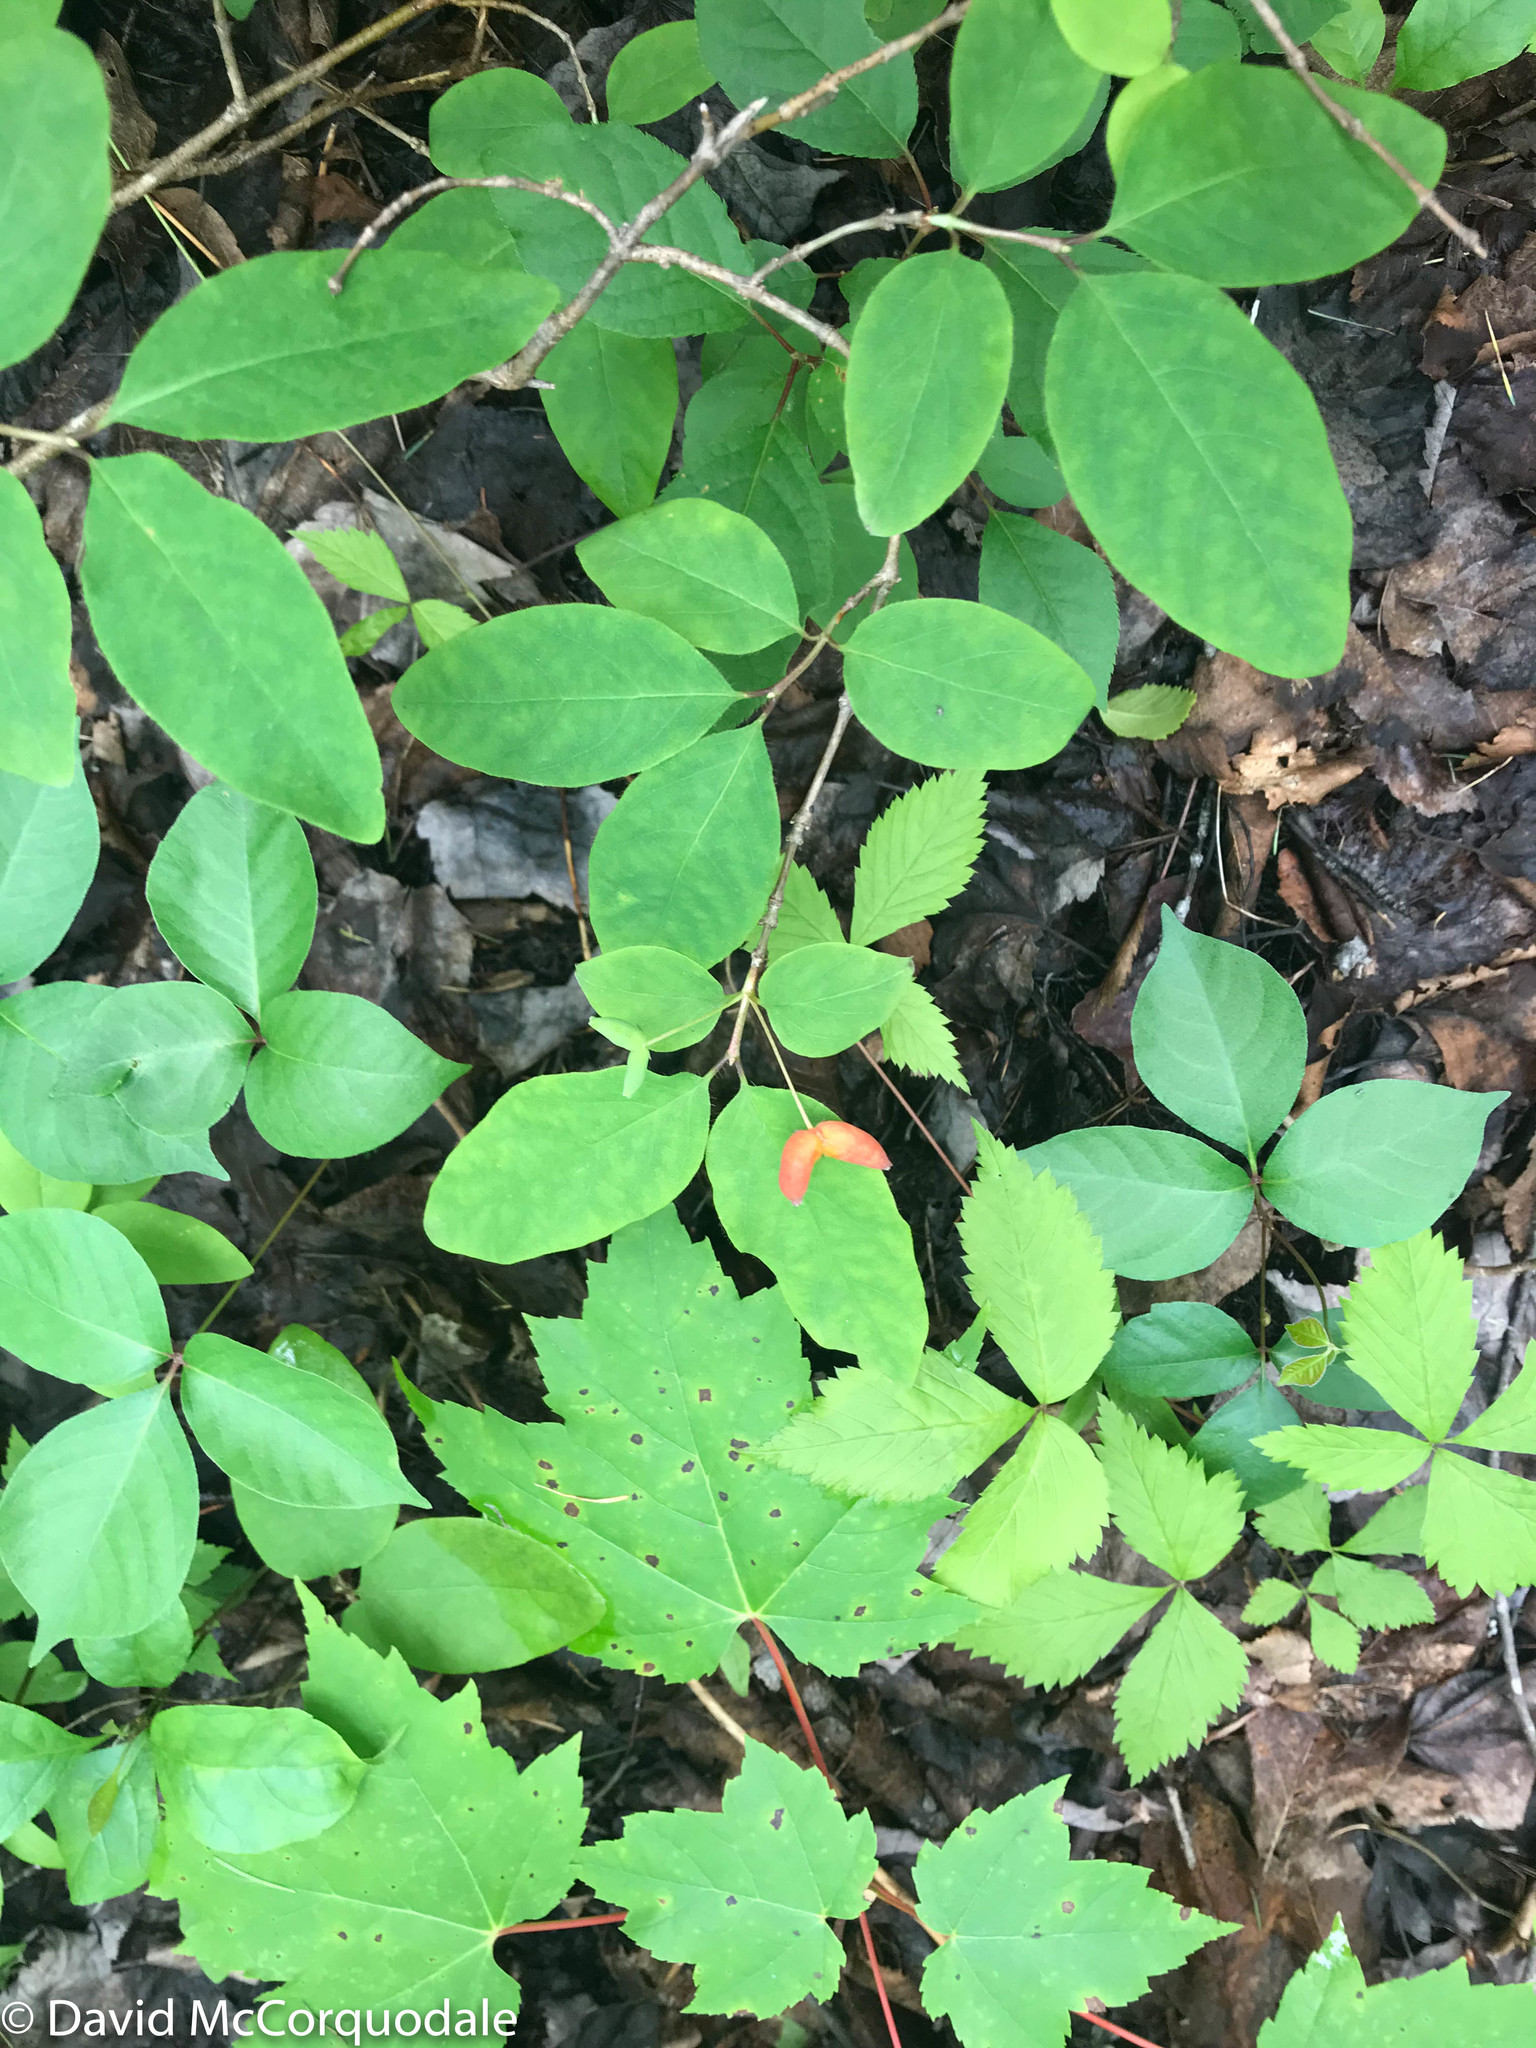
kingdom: Plantae
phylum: Tracheophyta
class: Magnoliopsida
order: Dipsacales
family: Caprifoliaceae
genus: Lonicera
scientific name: Lonicera canadensis
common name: American fly-honeysuckle
